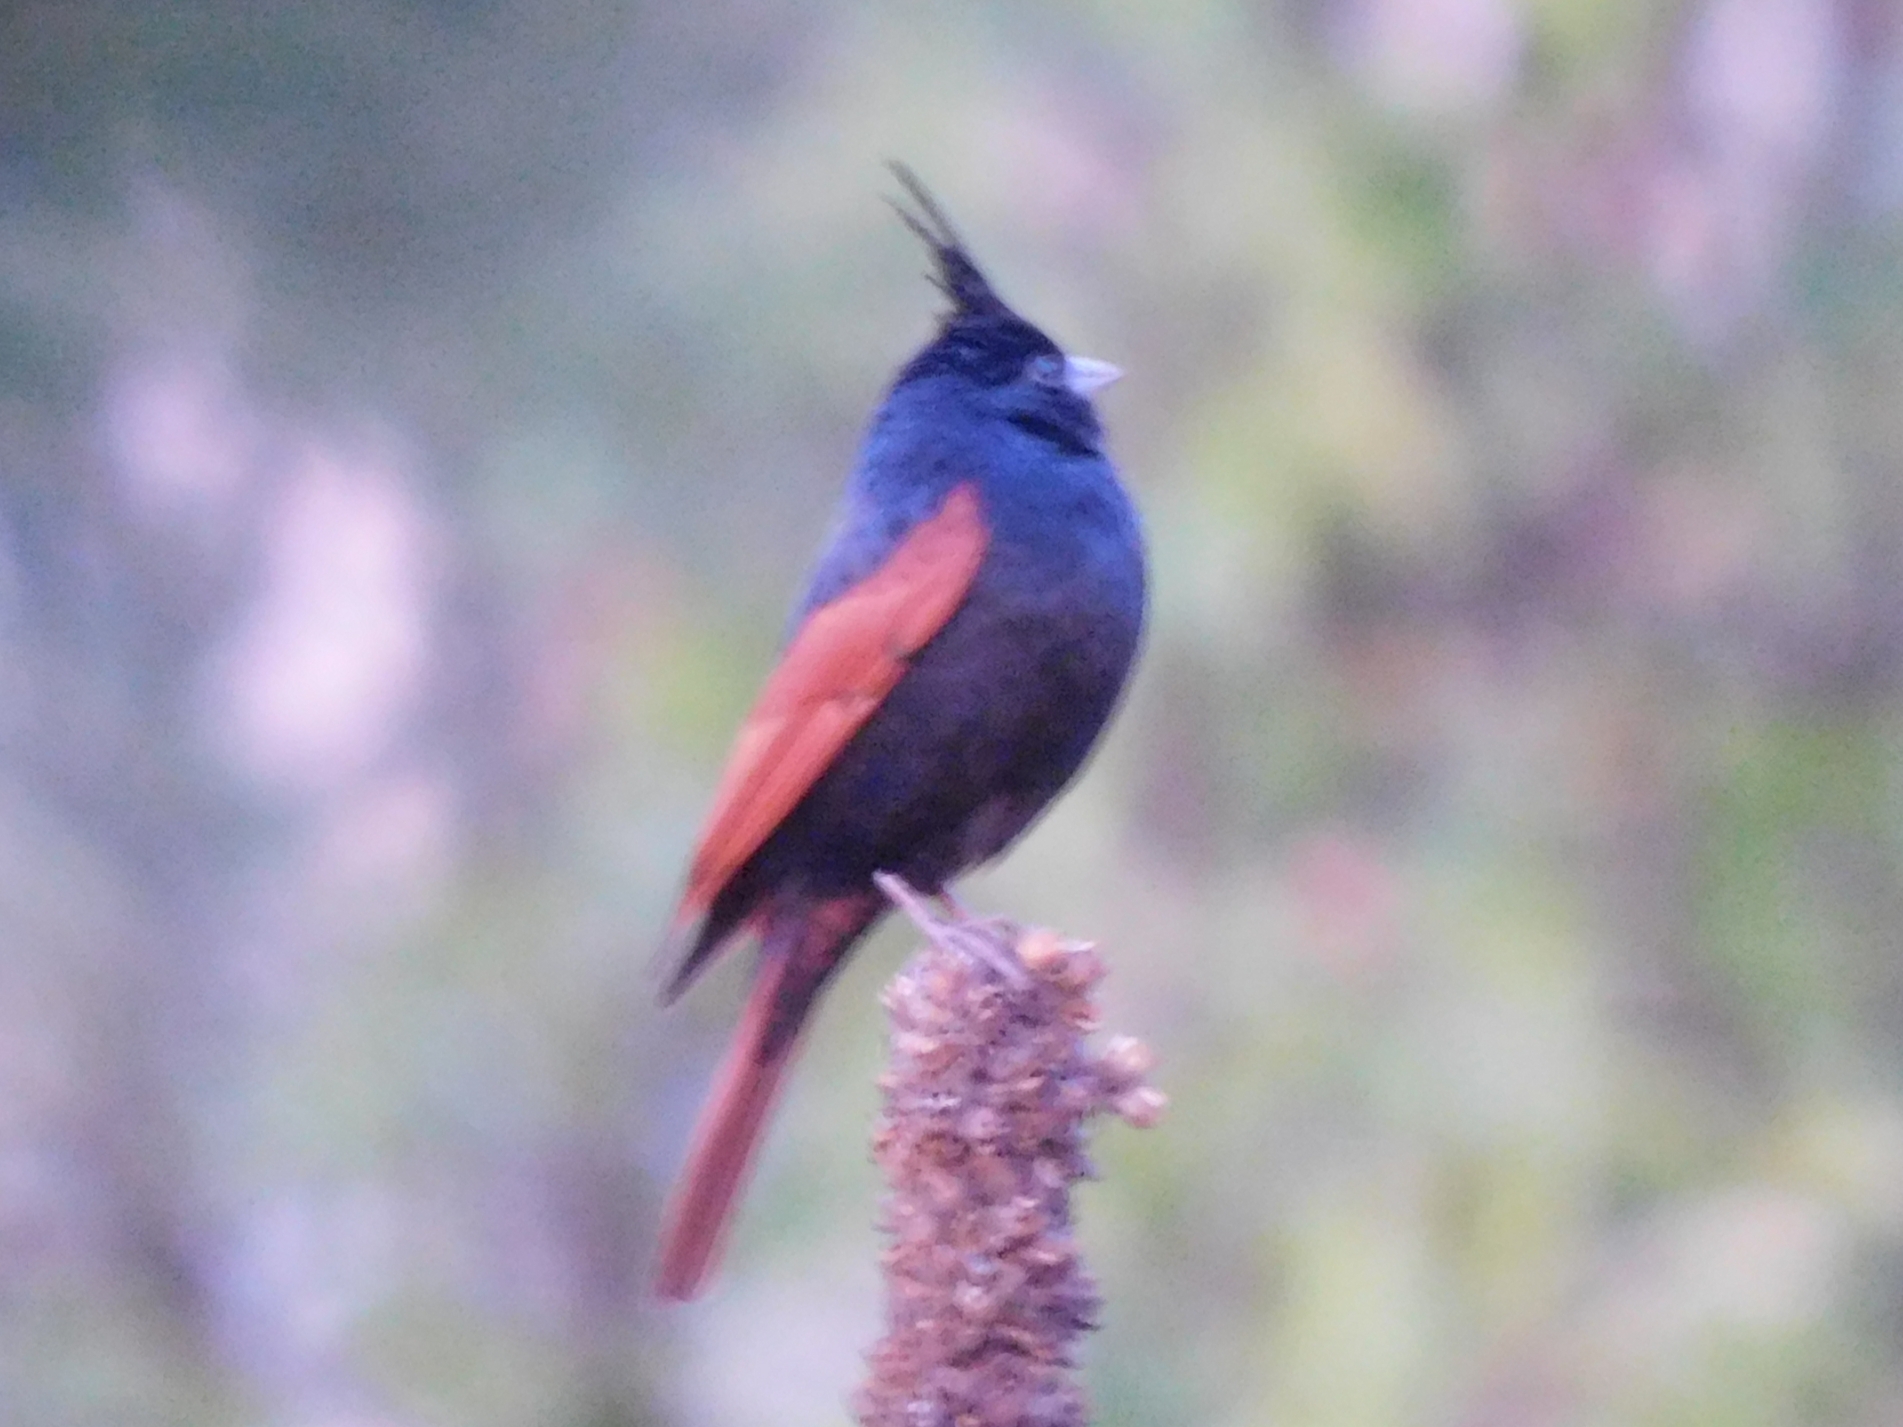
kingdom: Animalia
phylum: Chordata
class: Aves
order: Passeriformes
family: Emberizidae
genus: Emberiza
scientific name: Emberiza lathami
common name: Crested bunting
